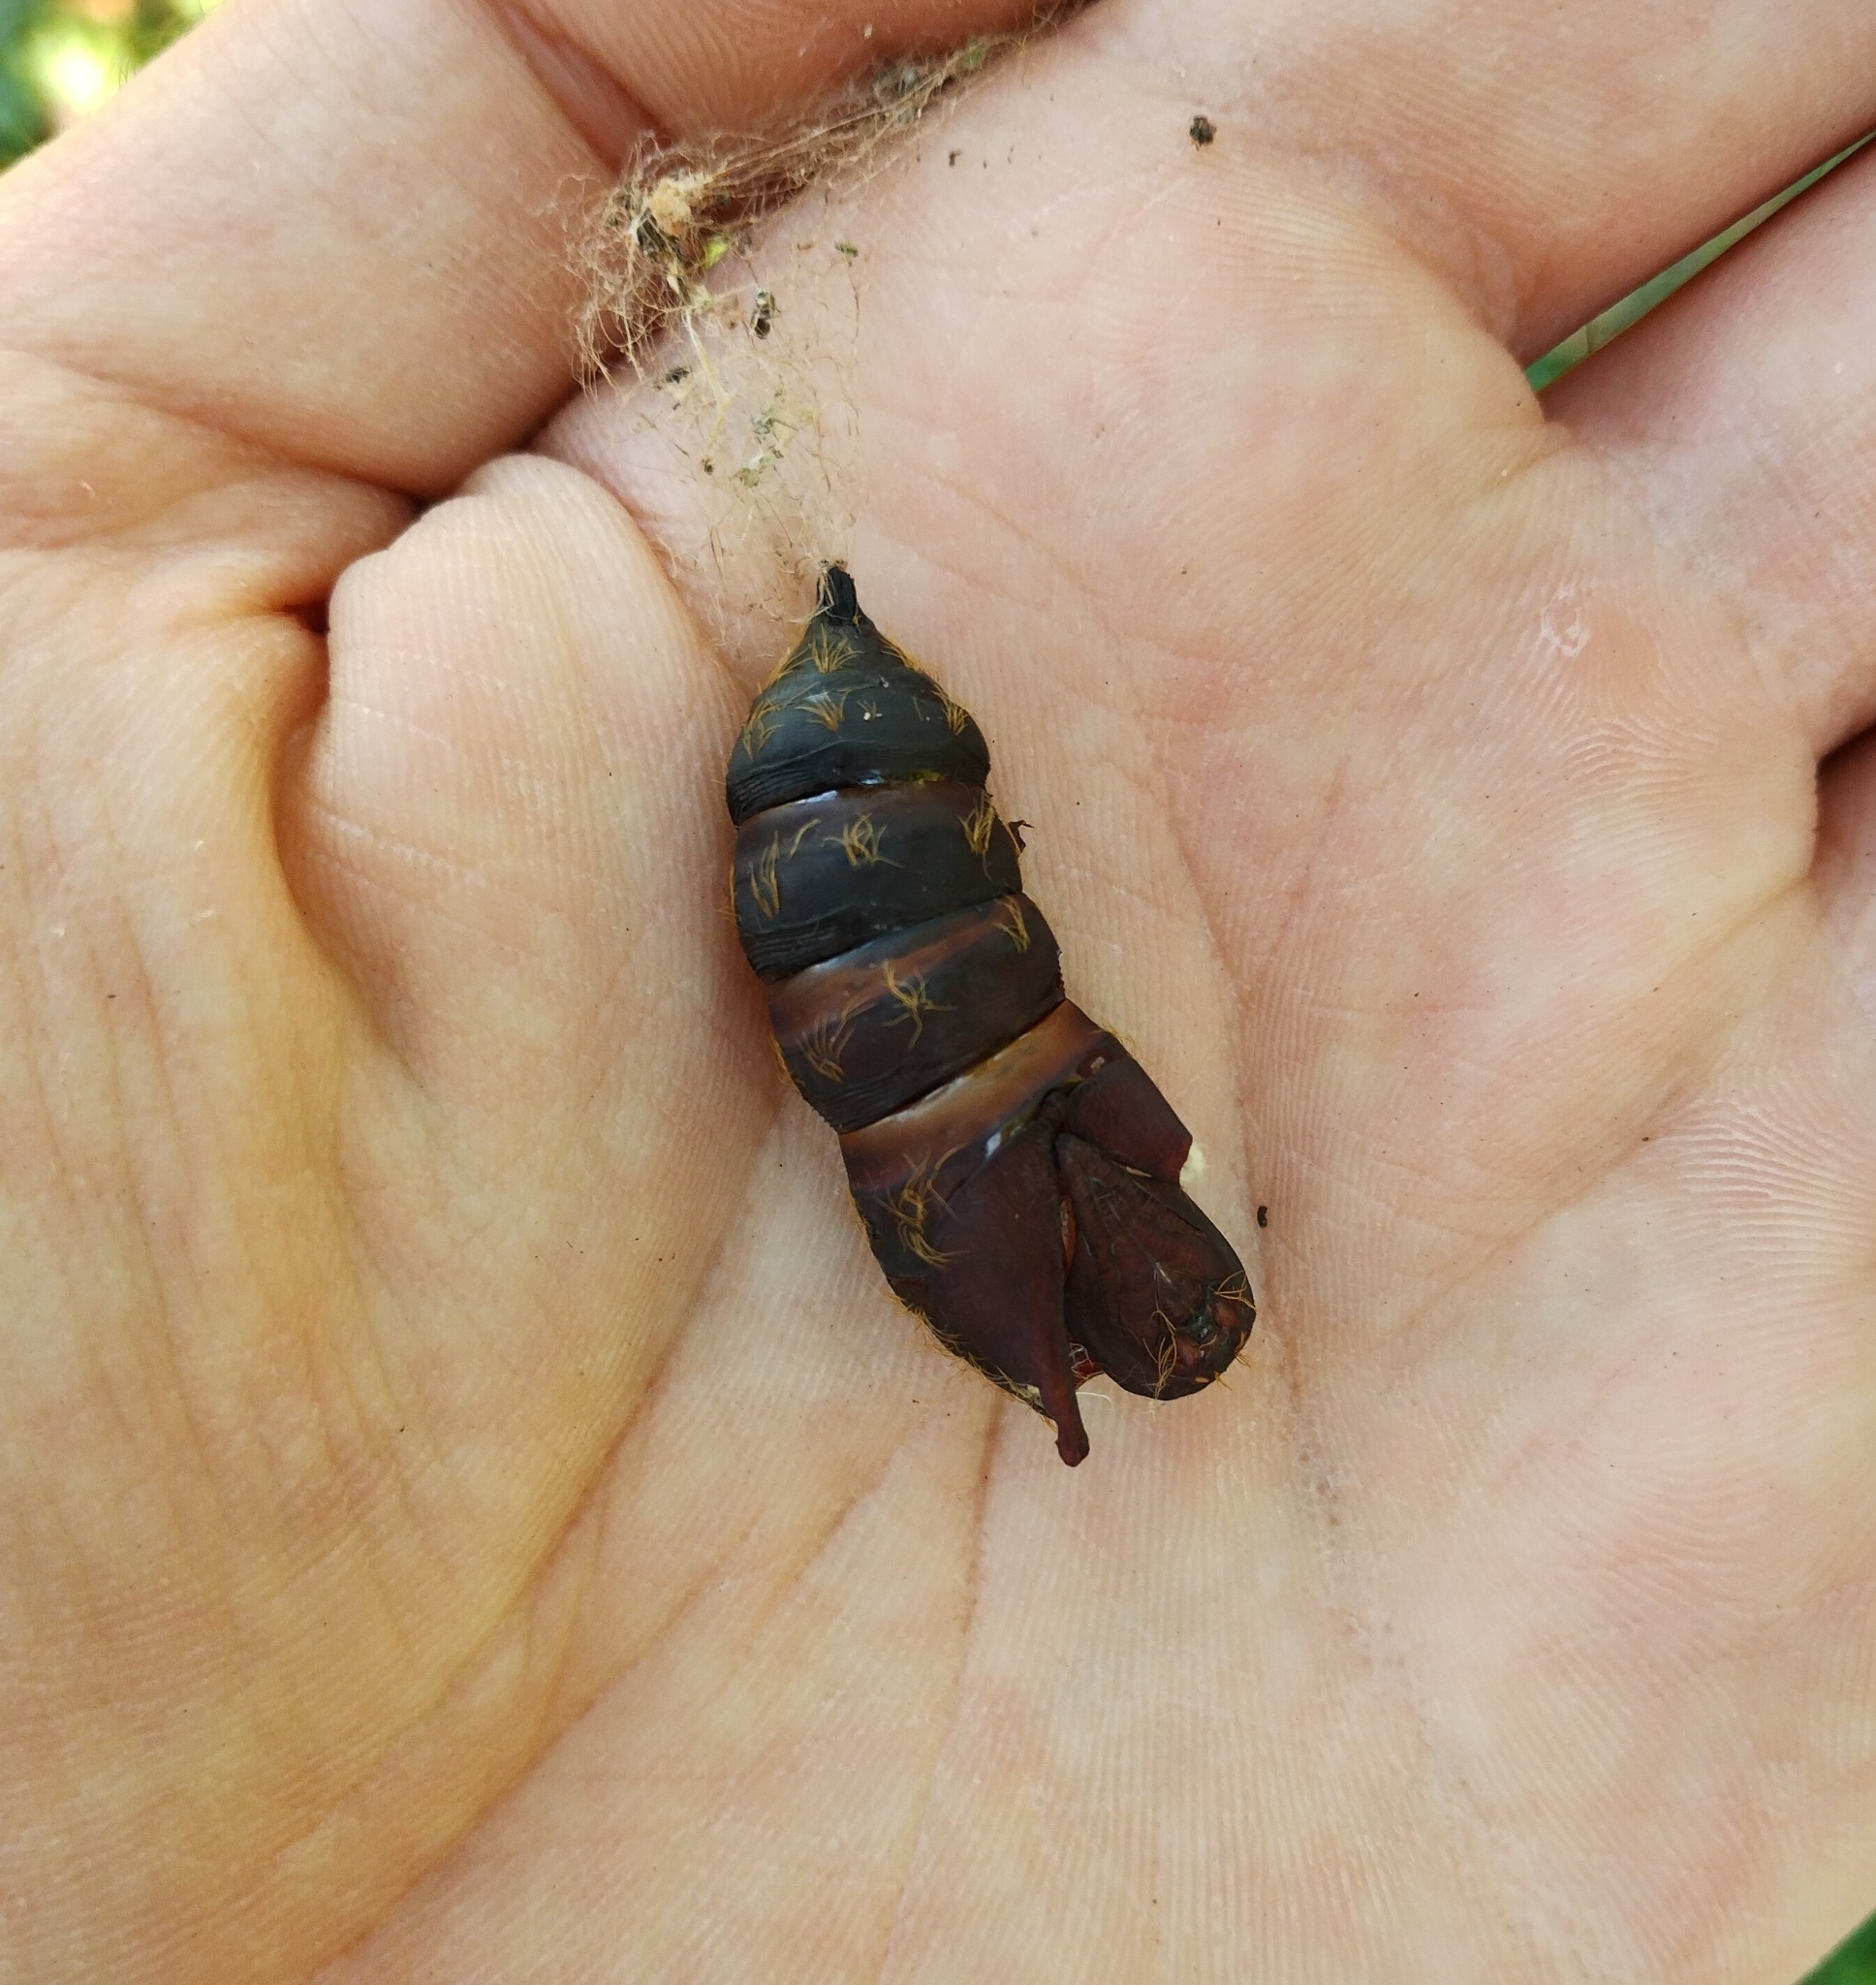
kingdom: Animalia
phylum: Arthropoda
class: Insecta
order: Lepidoptera
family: Erebidae
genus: Lymantria
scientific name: Lymantria dispar
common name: Gypsy moth
